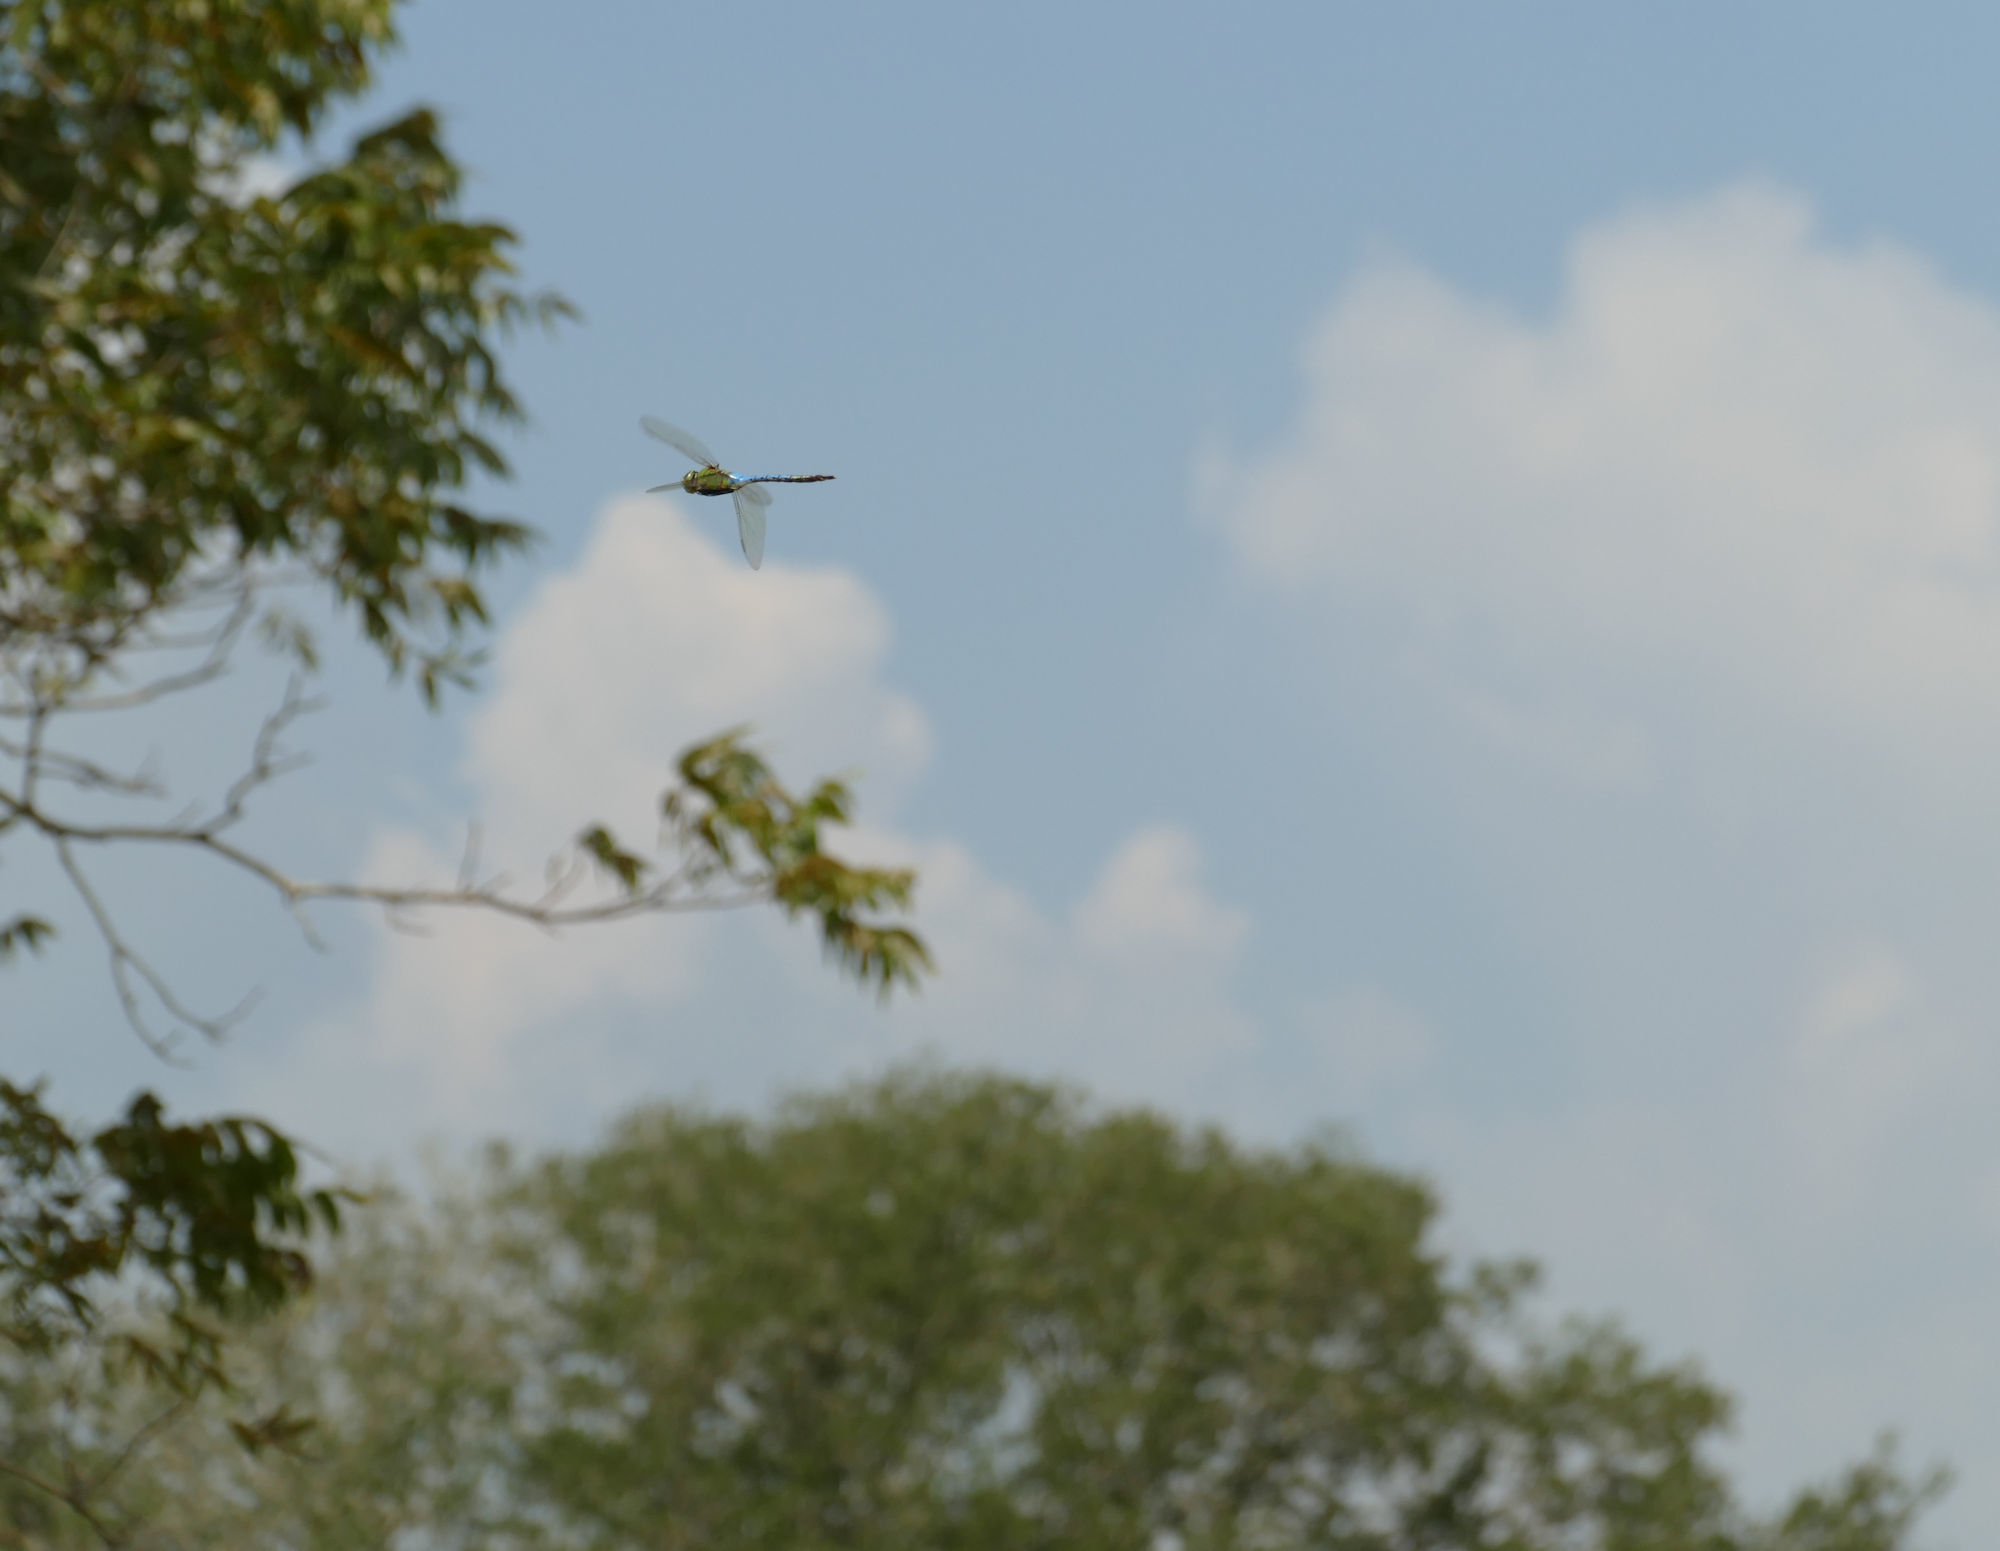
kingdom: Animalia
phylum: Arthropoda
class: Insecta
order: Odonata
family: Aeshnidae
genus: Anax
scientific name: Anax junius
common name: Common green darner
